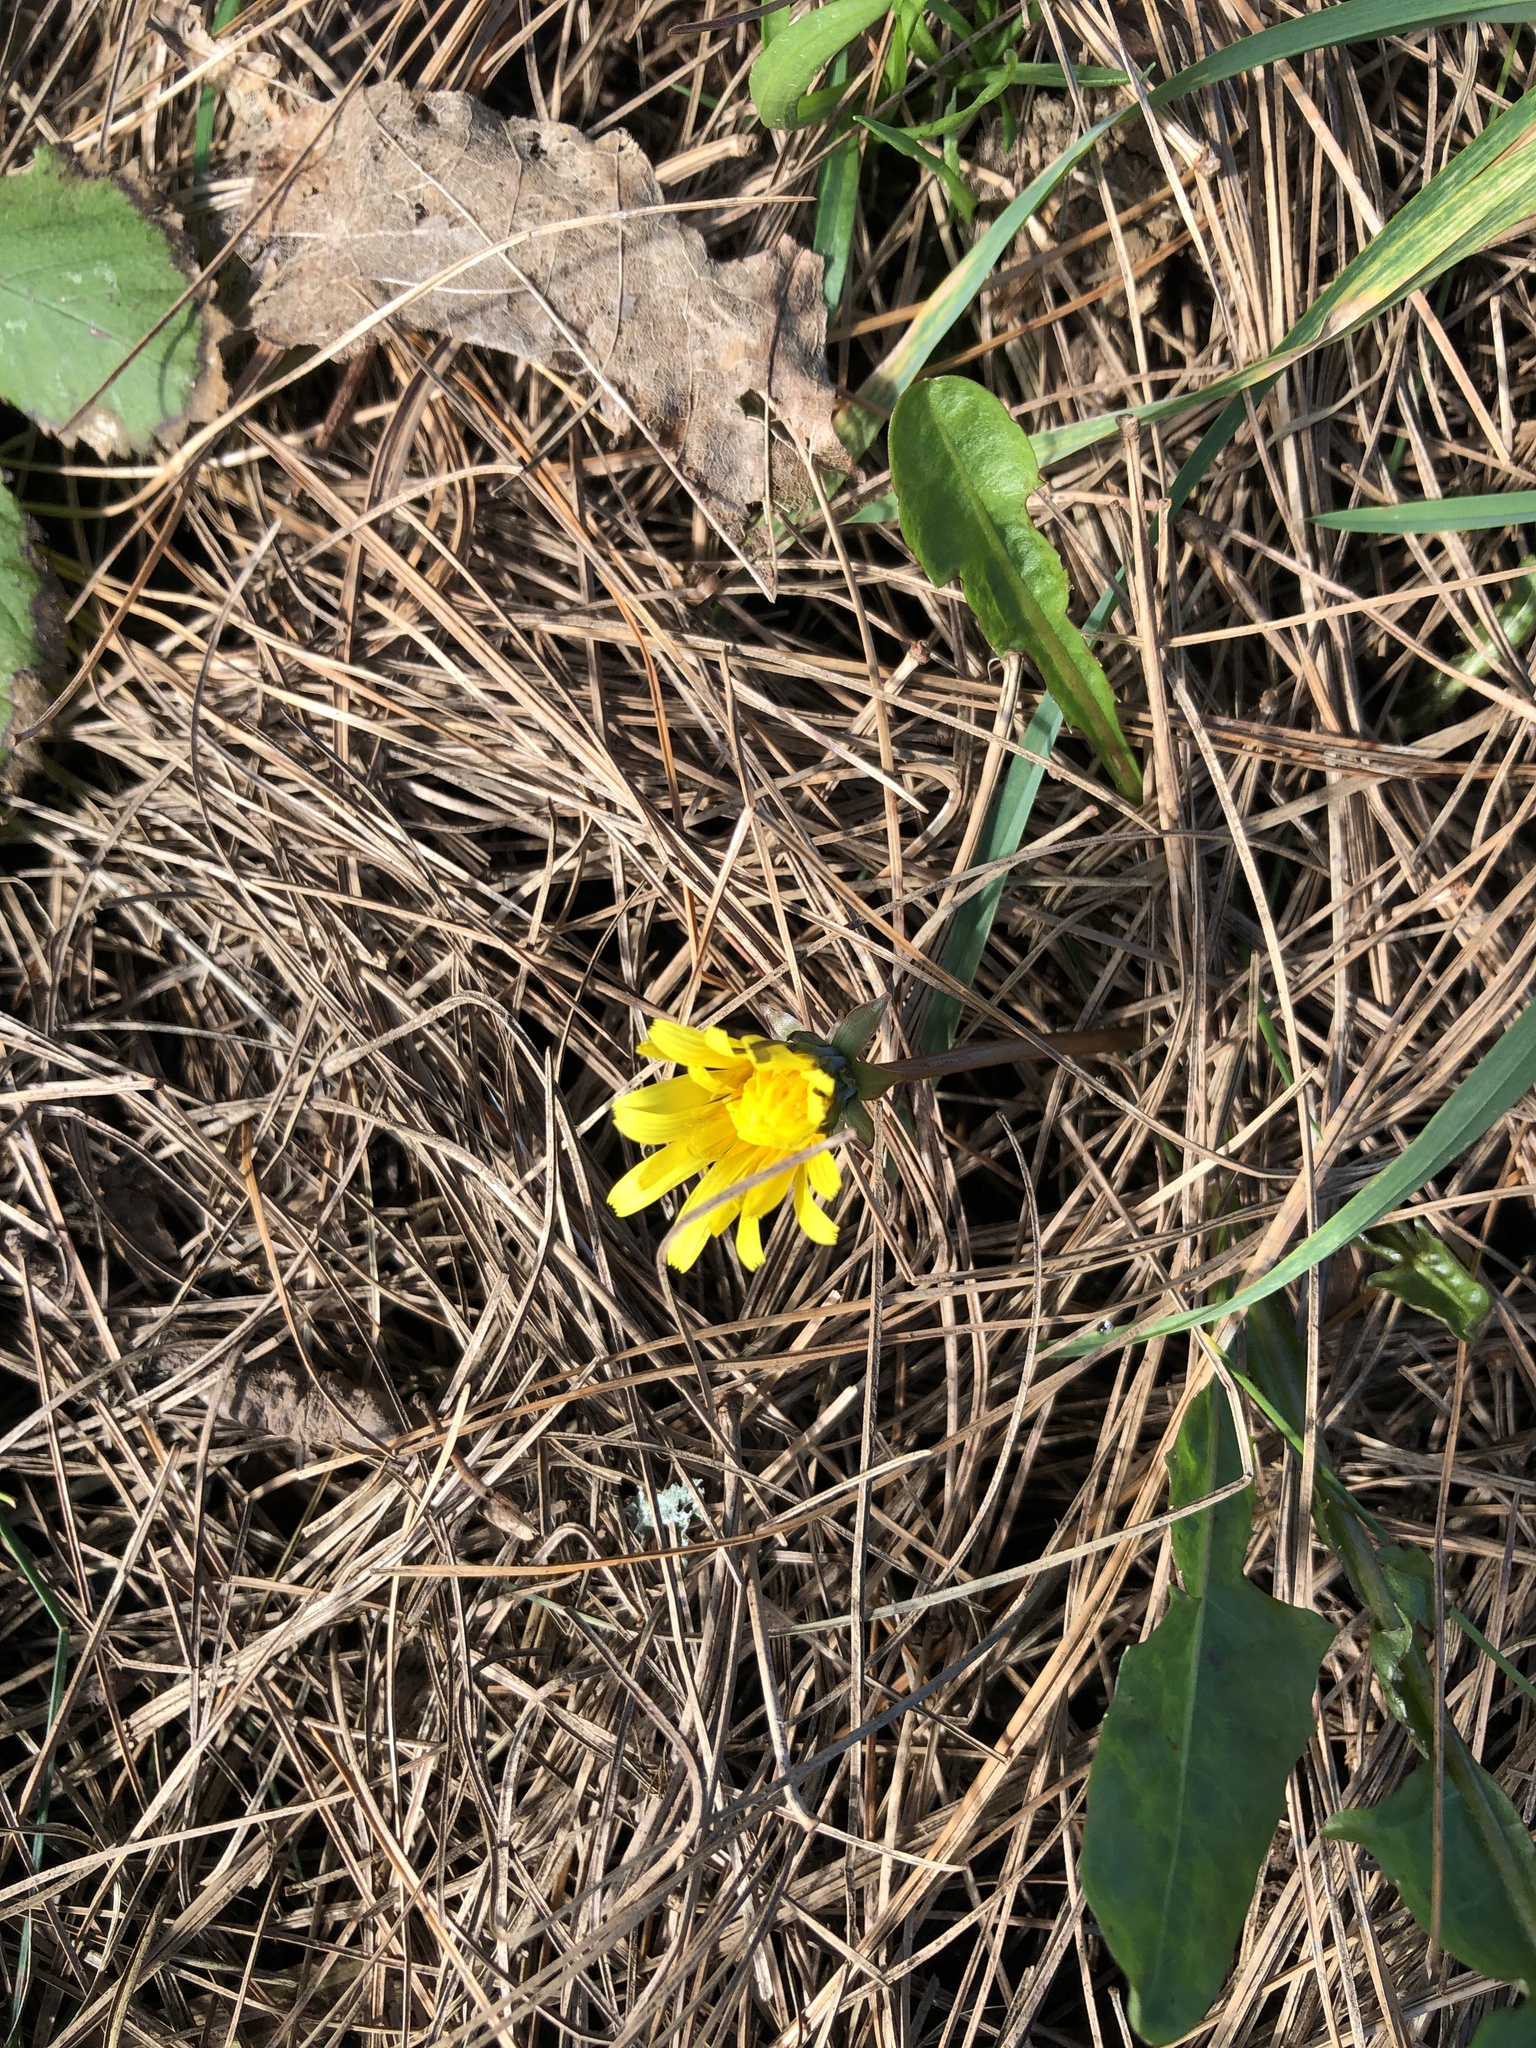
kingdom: Plantae
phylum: Tracheophyta
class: Magnoliopsida
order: Asterales
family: Asteraceae
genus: Taraxacum
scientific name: Taraxacum officinale
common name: Common dandelion
